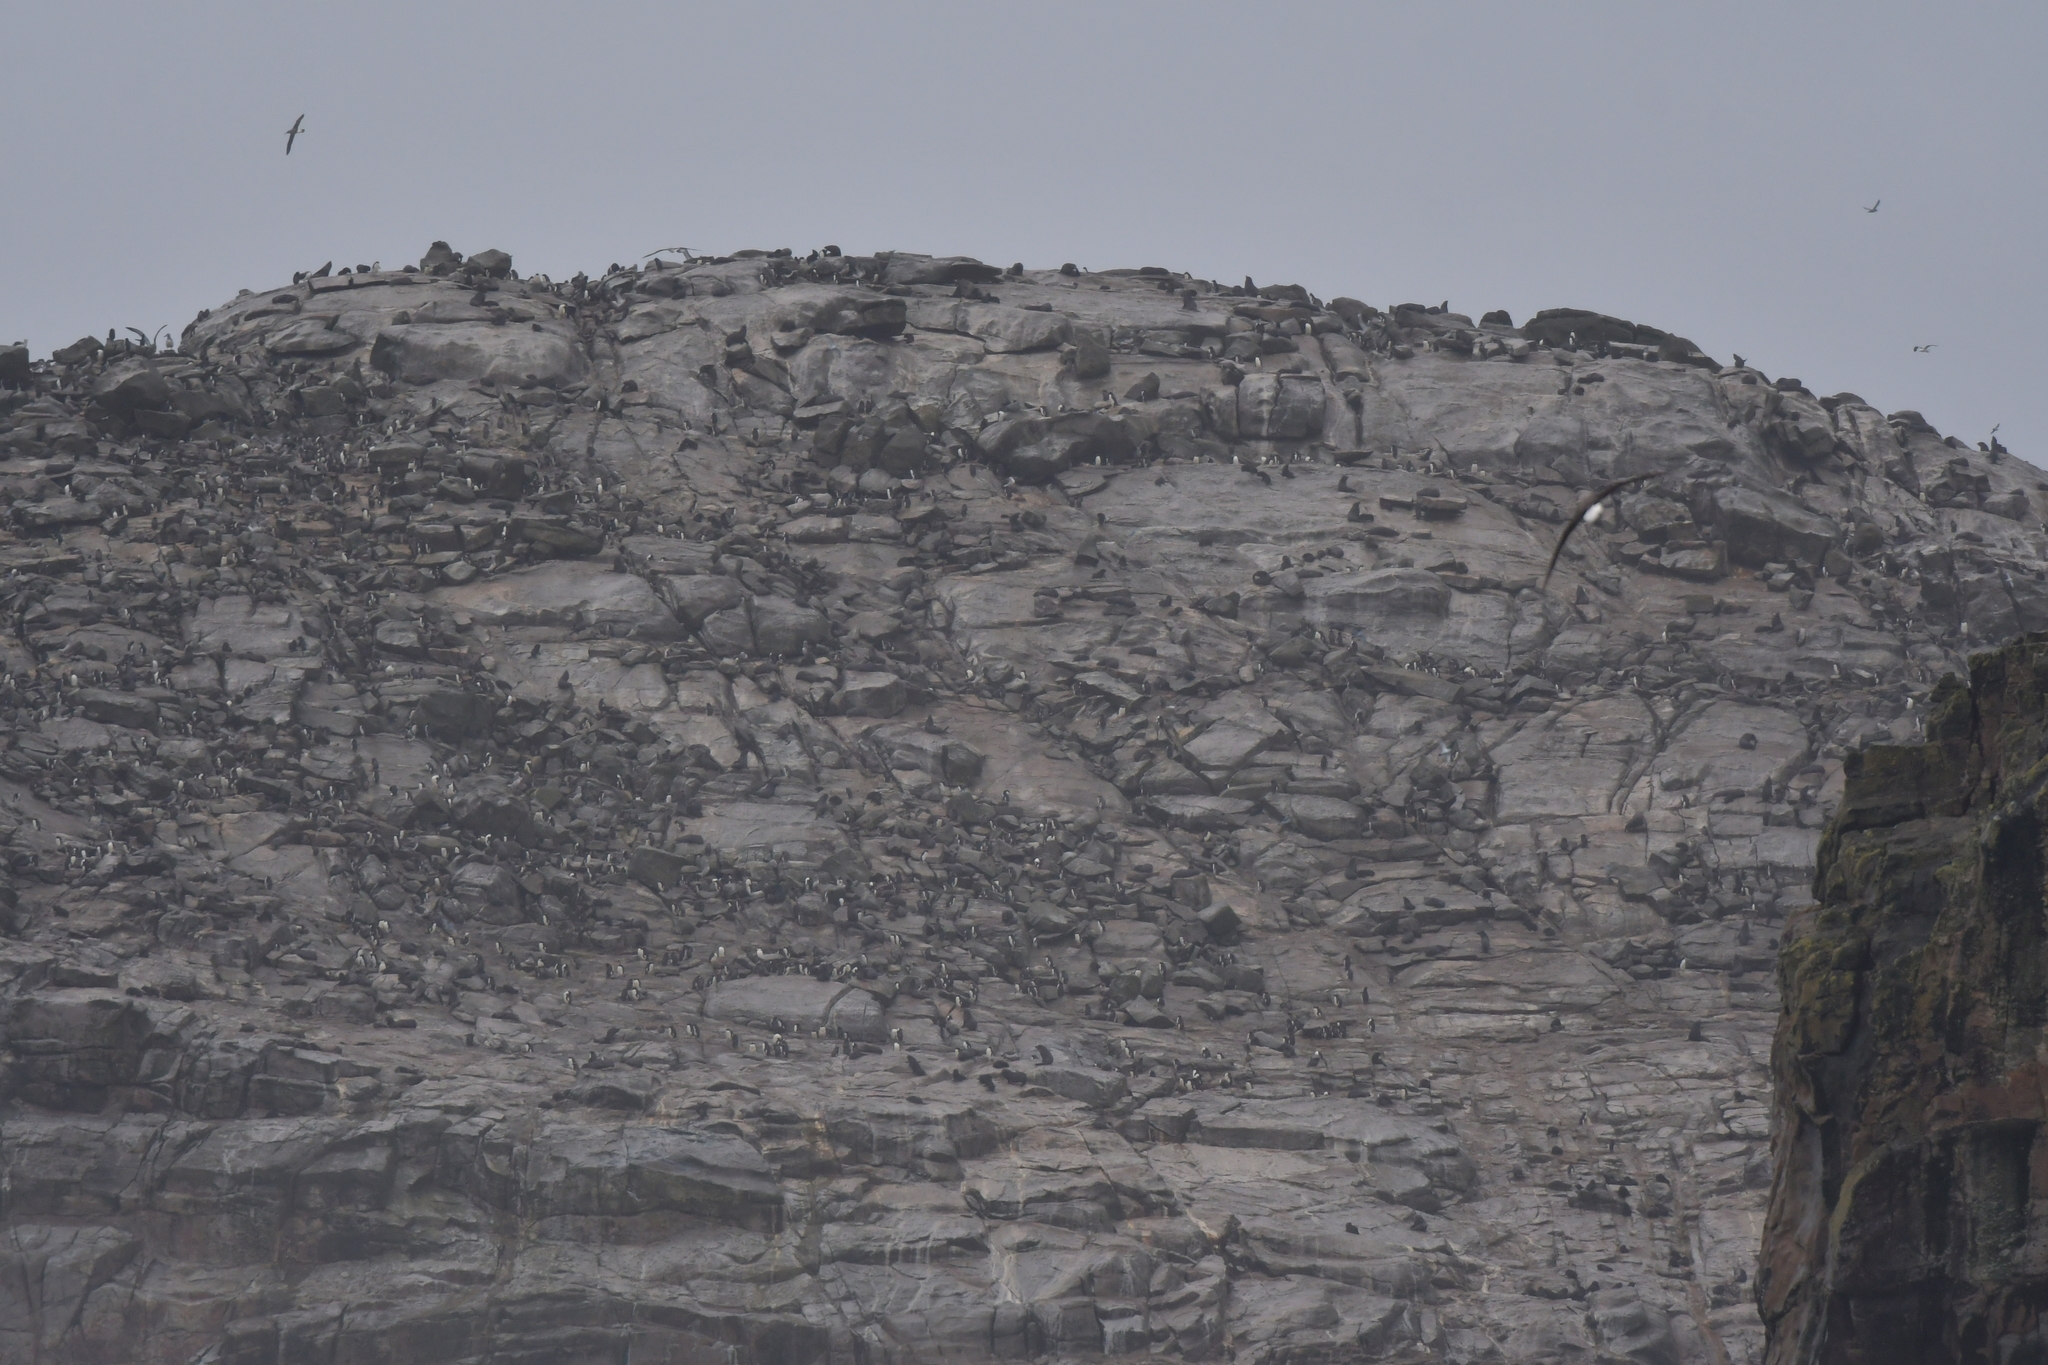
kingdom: Animalia
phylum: Chordata
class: Mammalia
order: Carnivora
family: Otariidae
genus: Arctocephalus
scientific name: Arctocephalus forsteri
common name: New zealand fur seal
